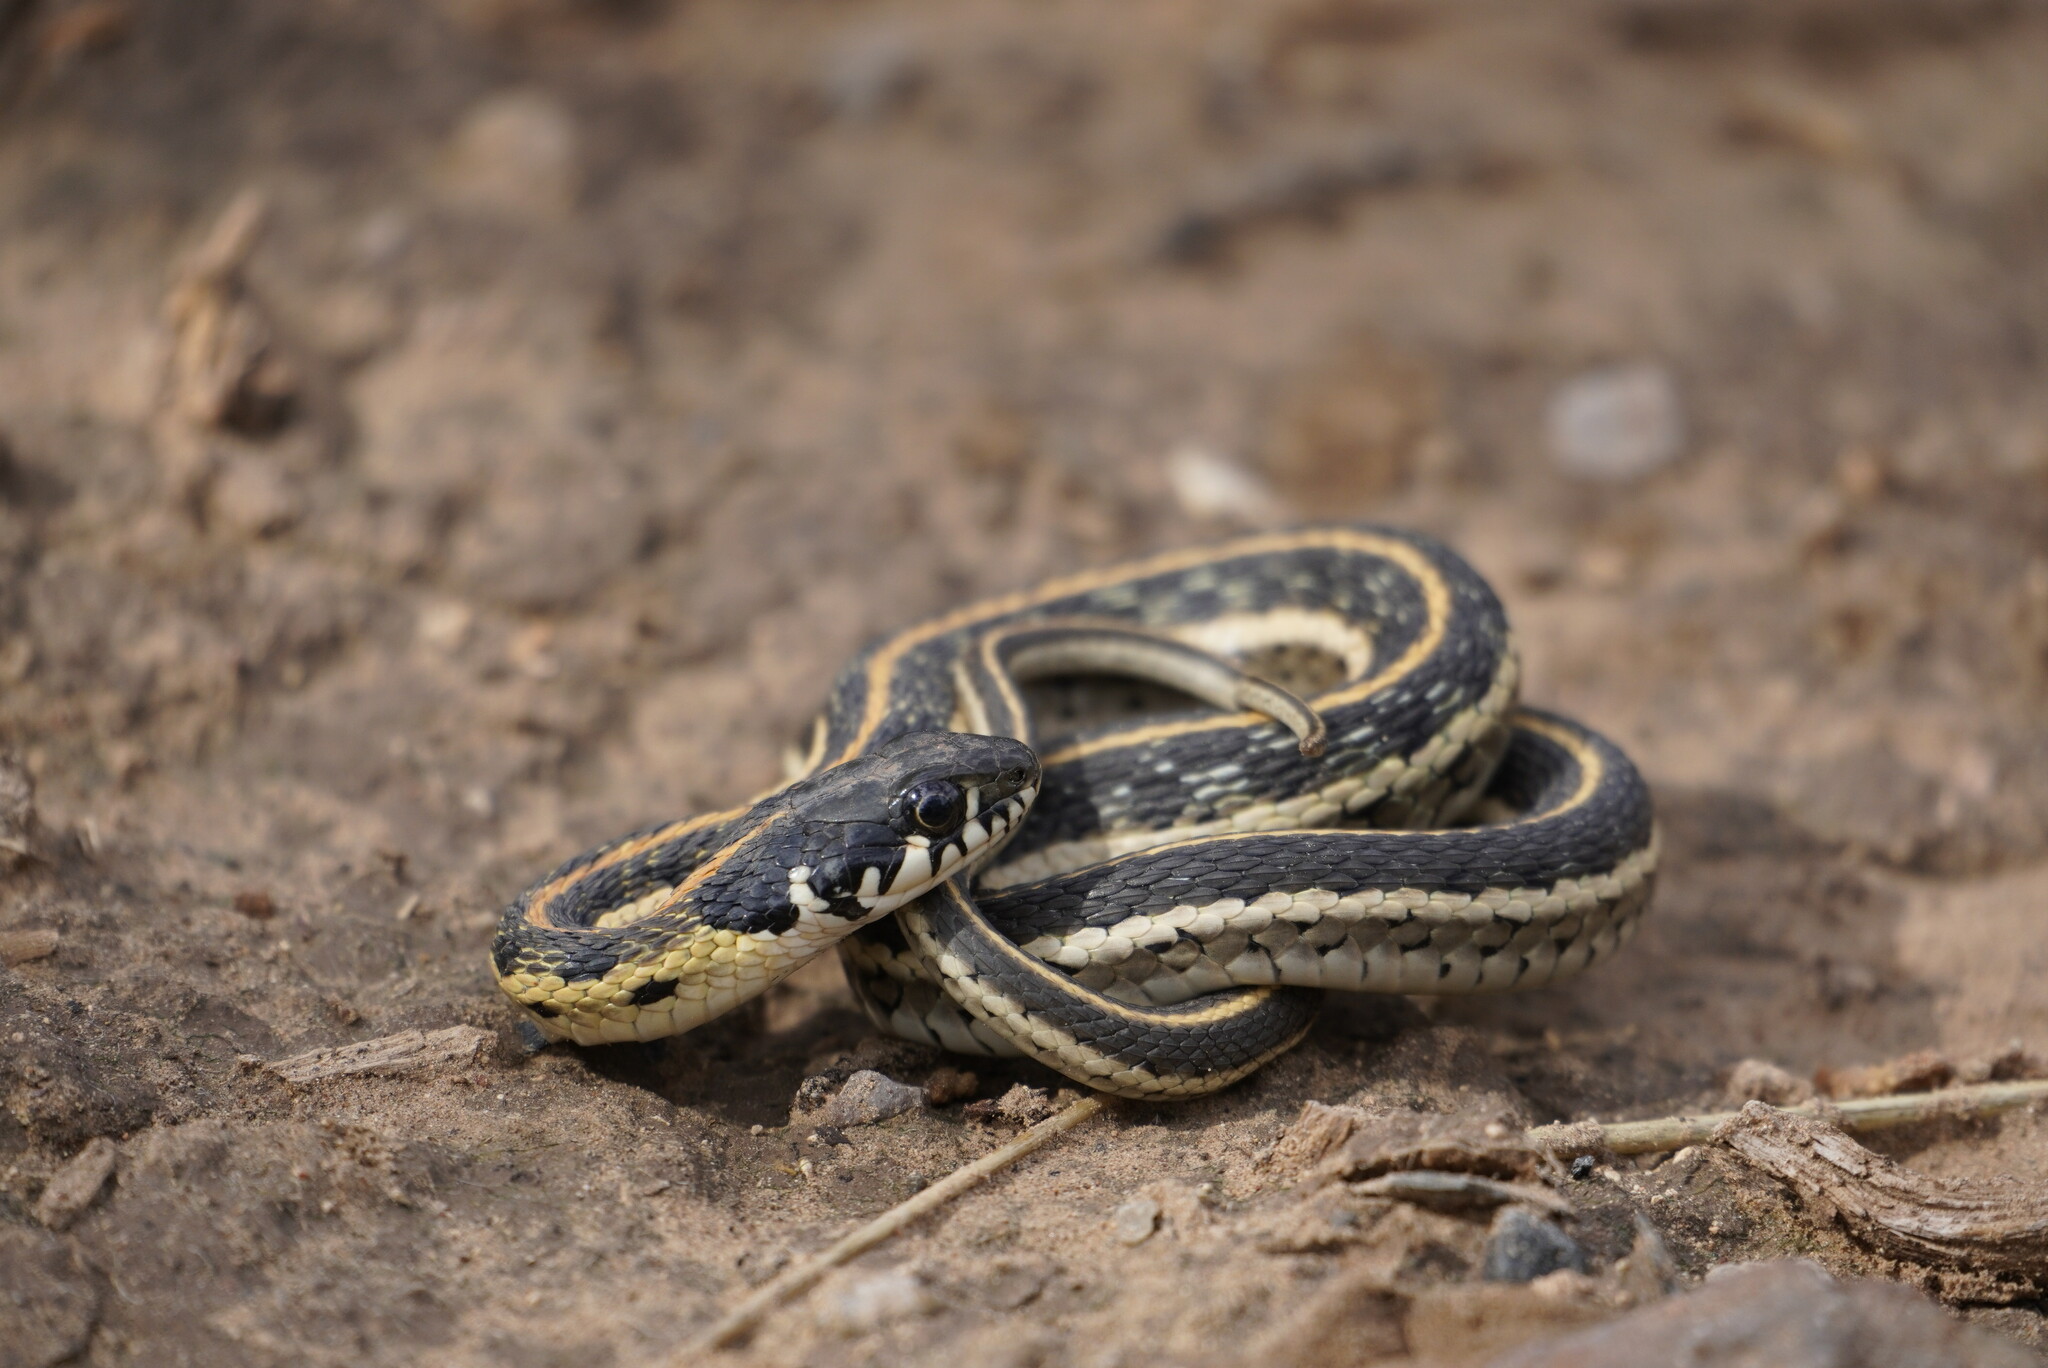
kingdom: Animalia
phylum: Chordata
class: Squamata
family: Colubridae
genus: Thamnophis
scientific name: Thamnophis cyrtopsis
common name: Black-necked gartersnake
